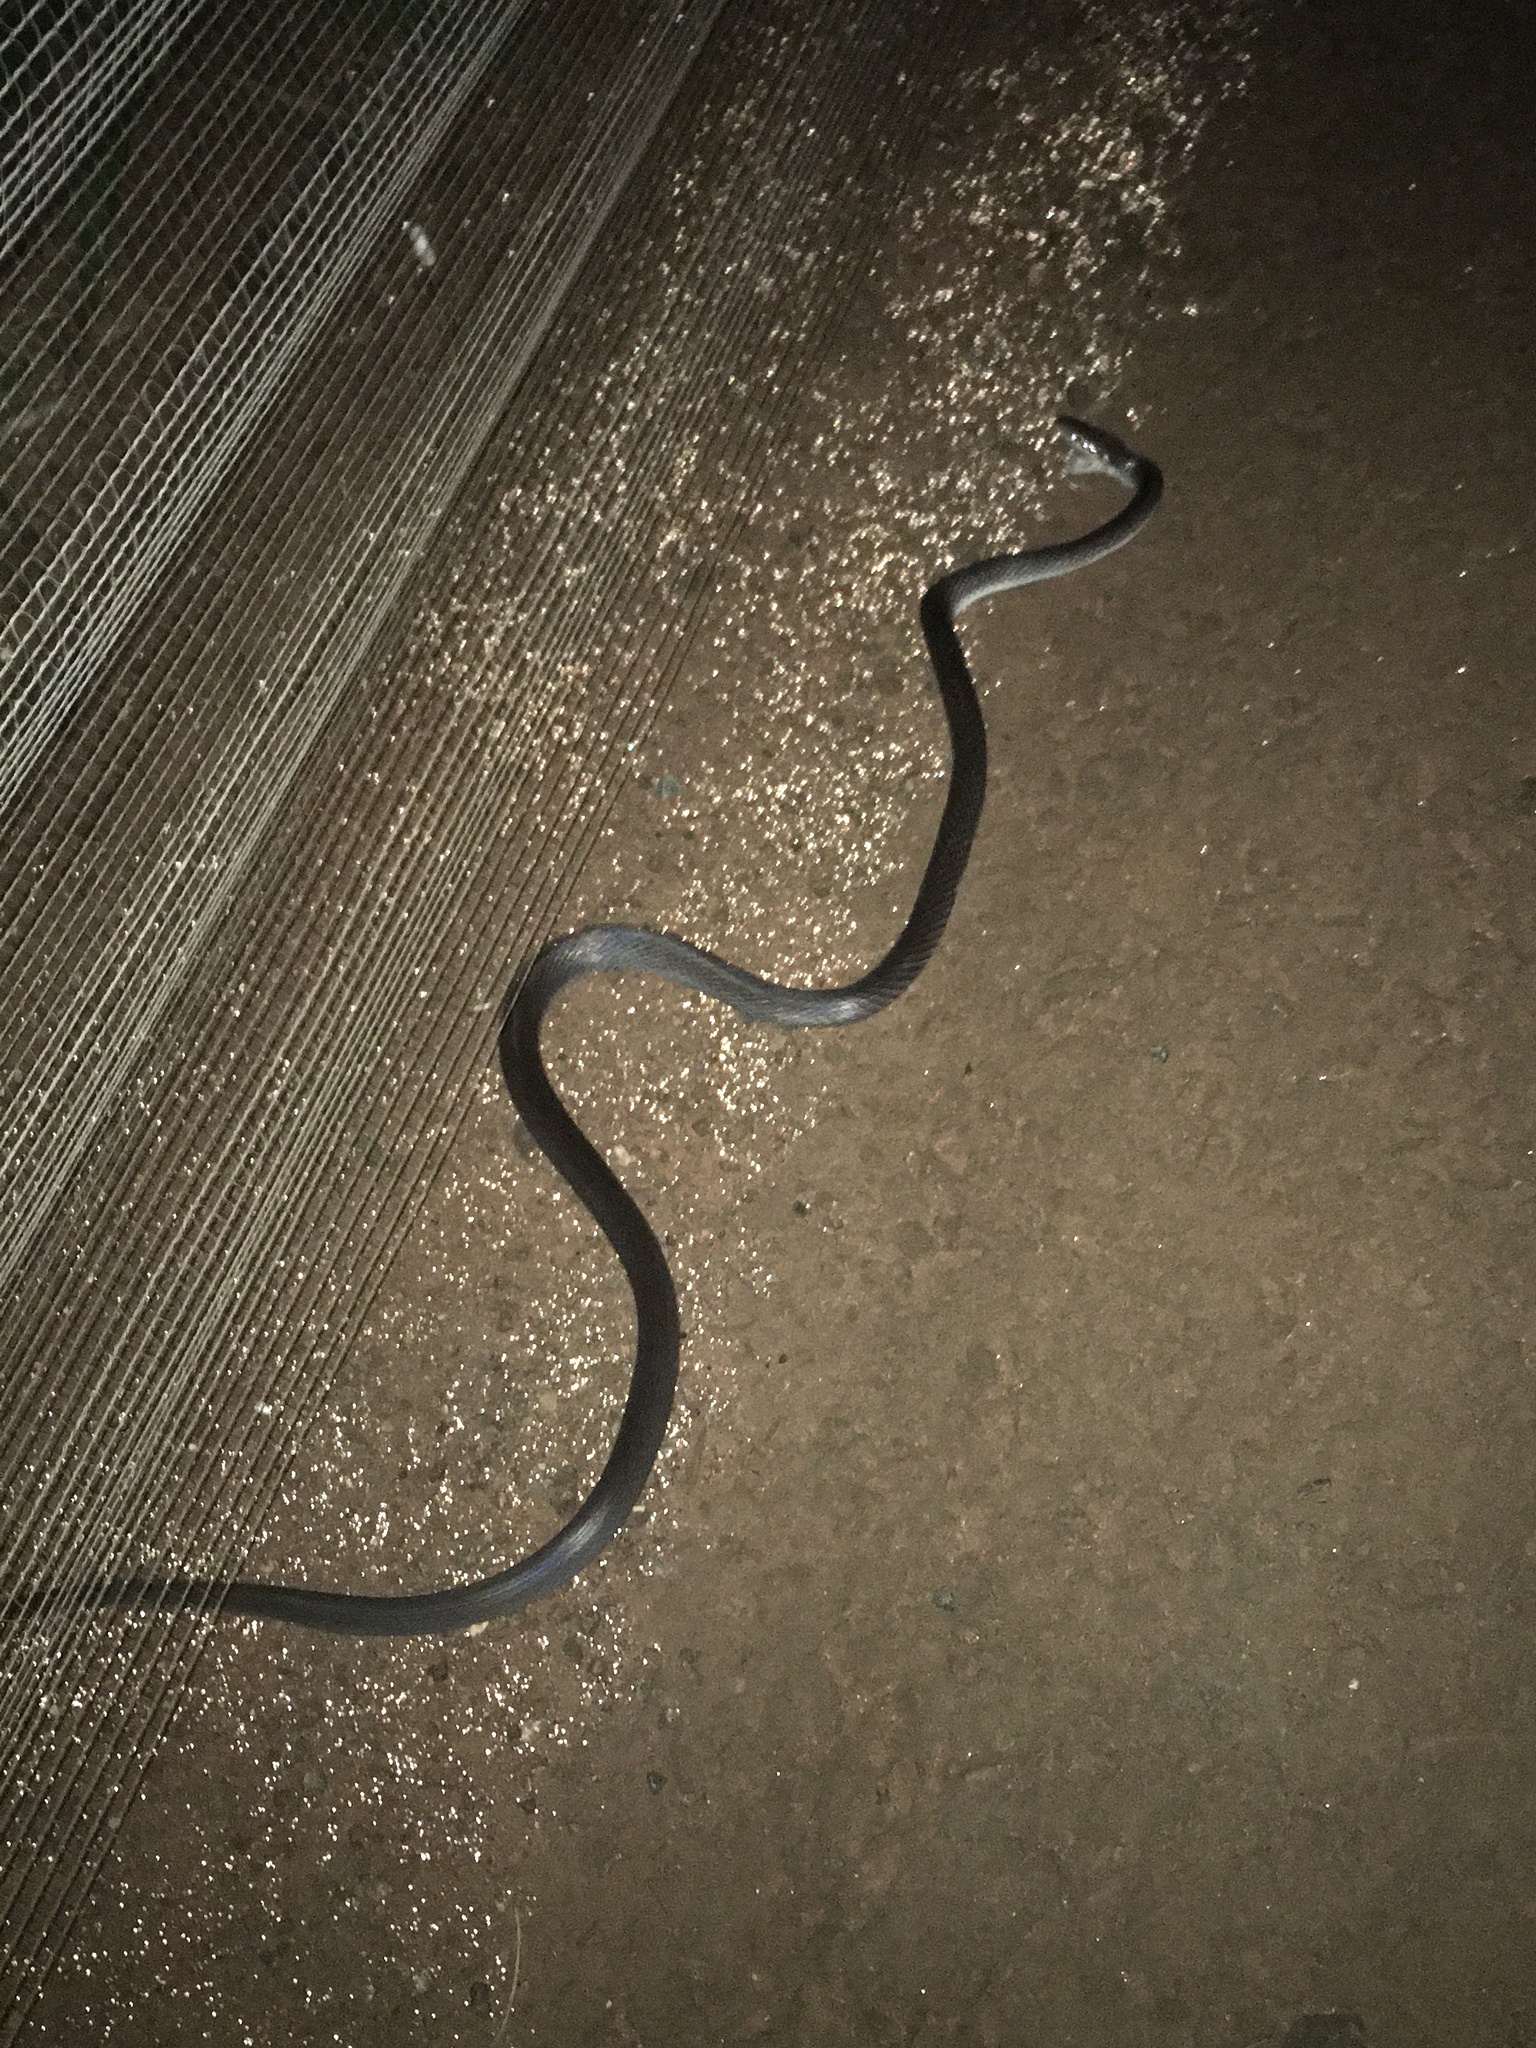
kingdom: Animalia
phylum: Chordata
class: Squamata
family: Colubridae
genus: Oxyrhopus
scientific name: Oxyrhopus petolarius
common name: Forest flame snake
